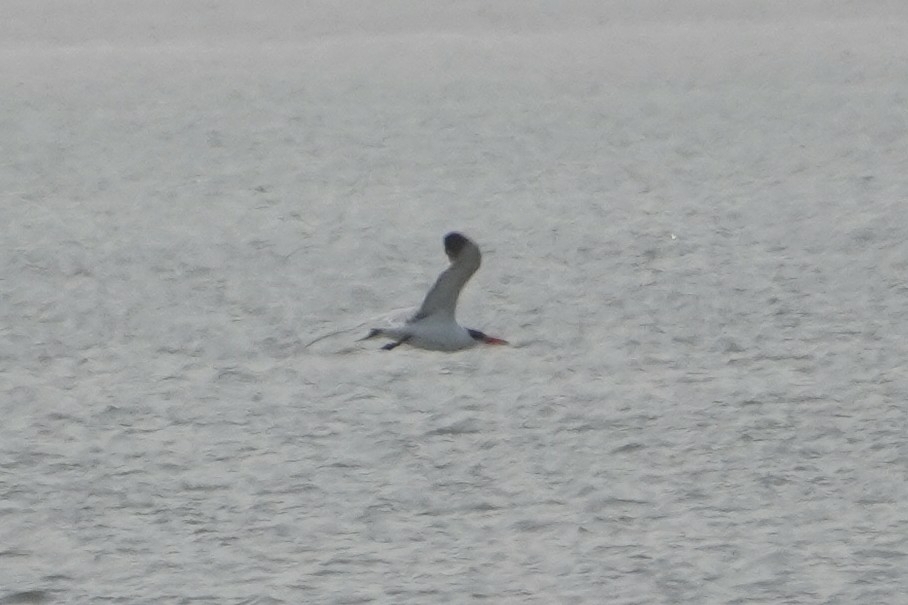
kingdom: Animalia
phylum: Chordata
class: Aves
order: Charadriiformes
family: Laridae
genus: Hydroprogne
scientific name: Hydroprogne caspia
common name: Caspian tern
